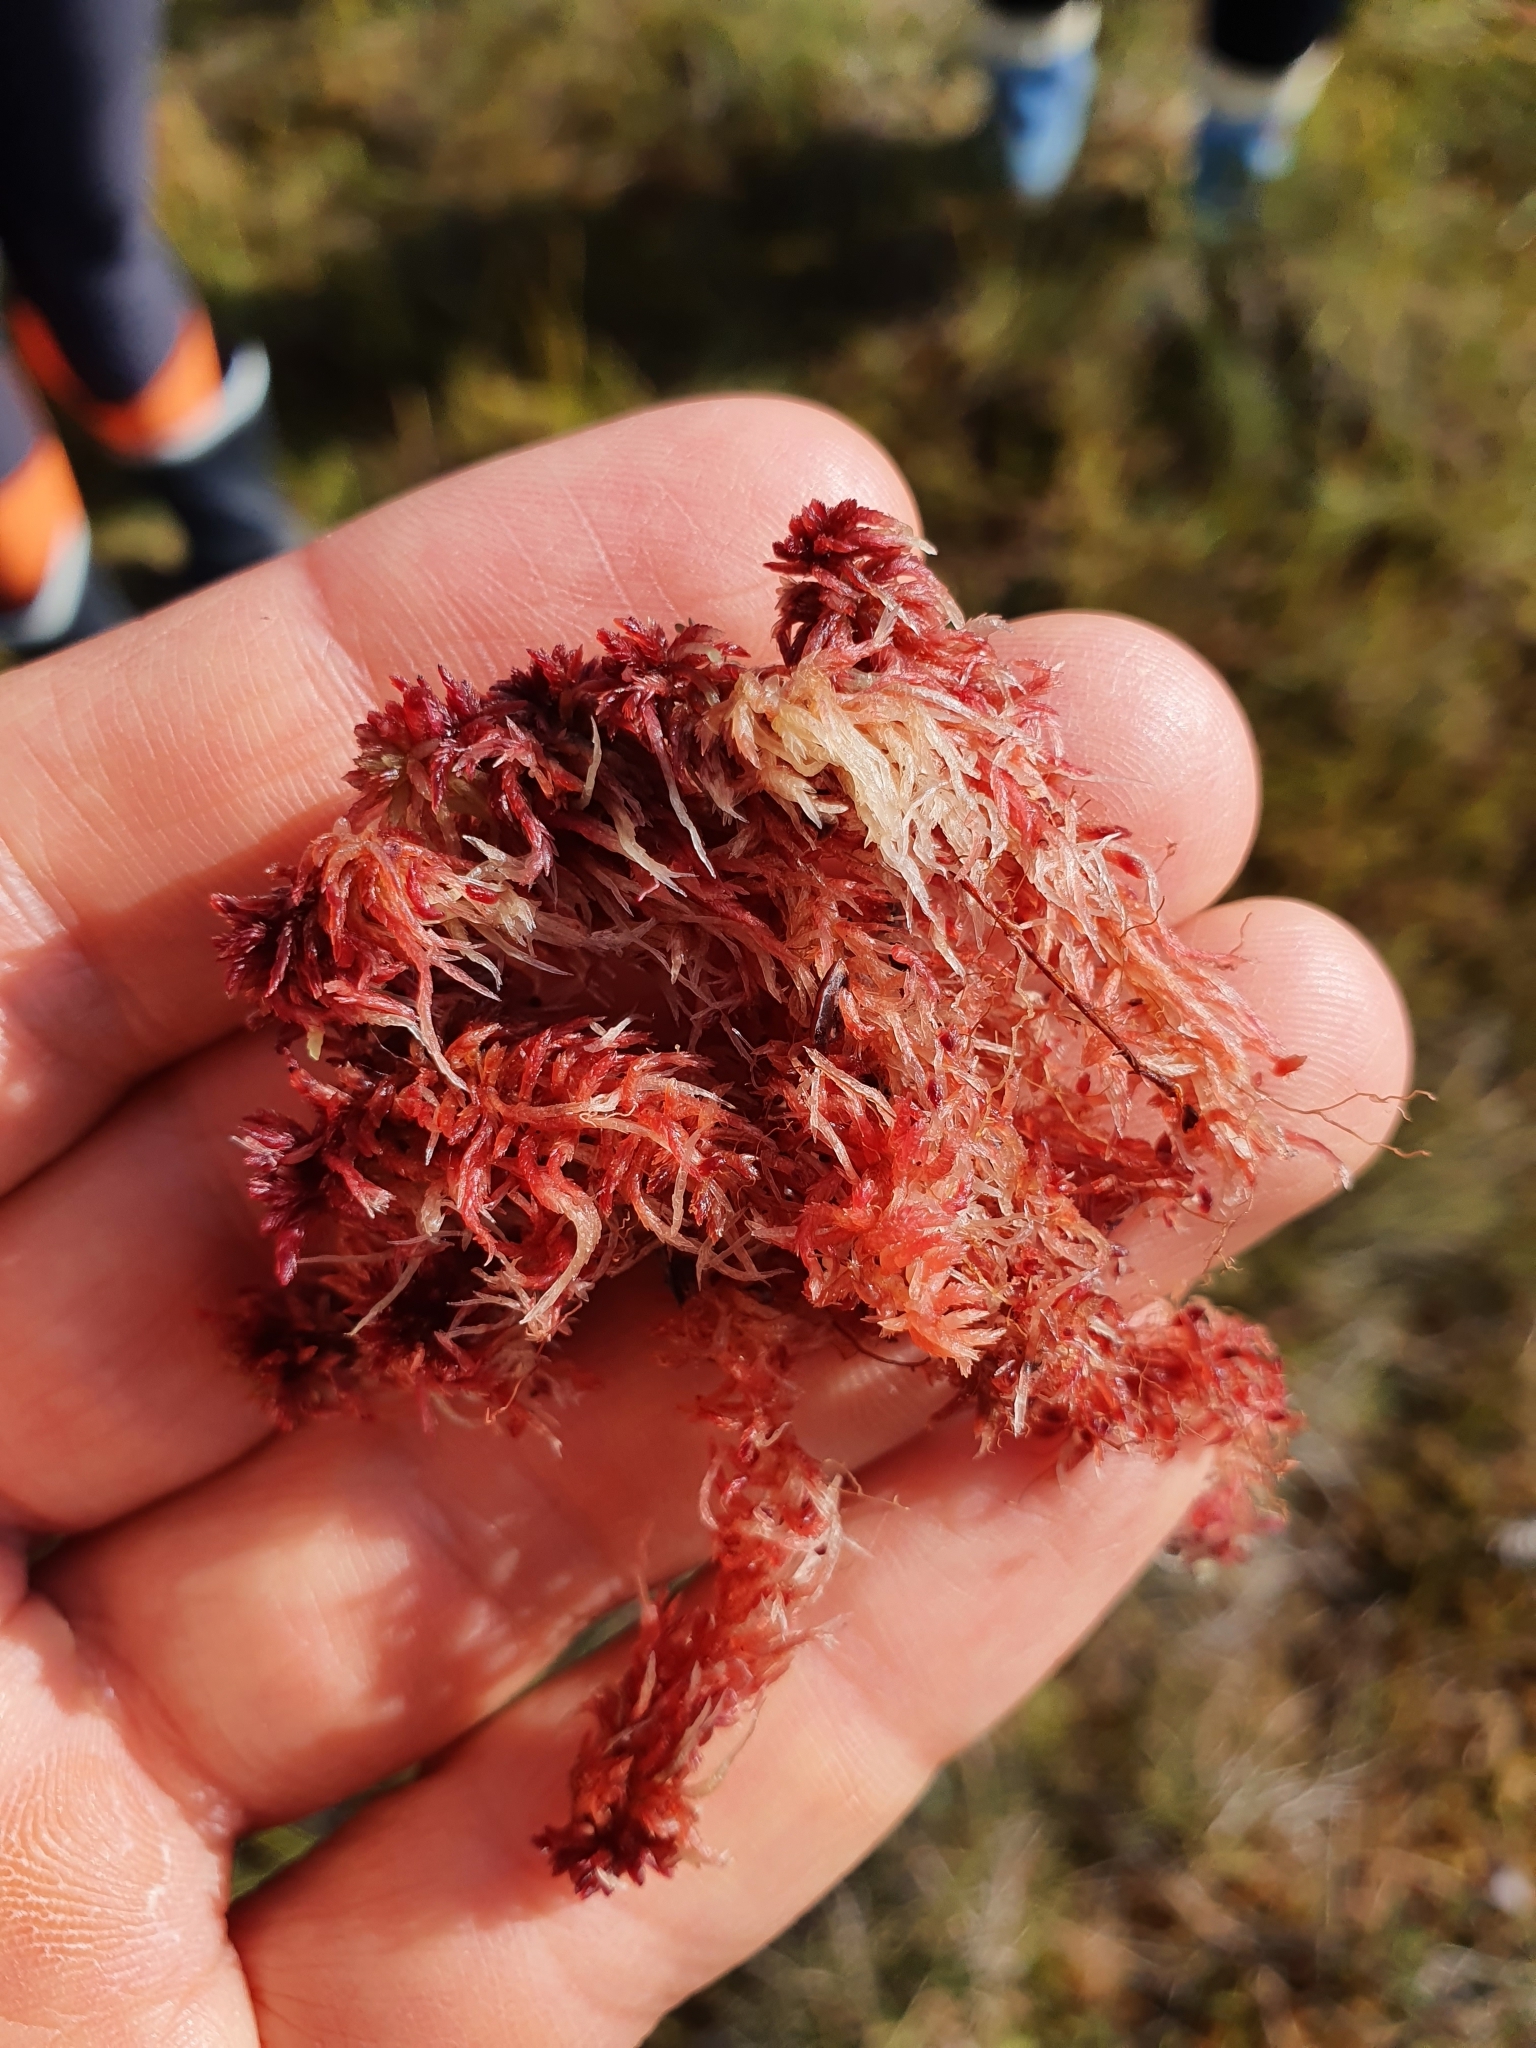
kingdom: Plantae
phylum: Bryophyta
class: Sphagnopsida
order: Sphagnales
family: Sphagnaceae
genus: Sphagnum
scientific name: Sphagnum rubellum
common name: Red peat moss
